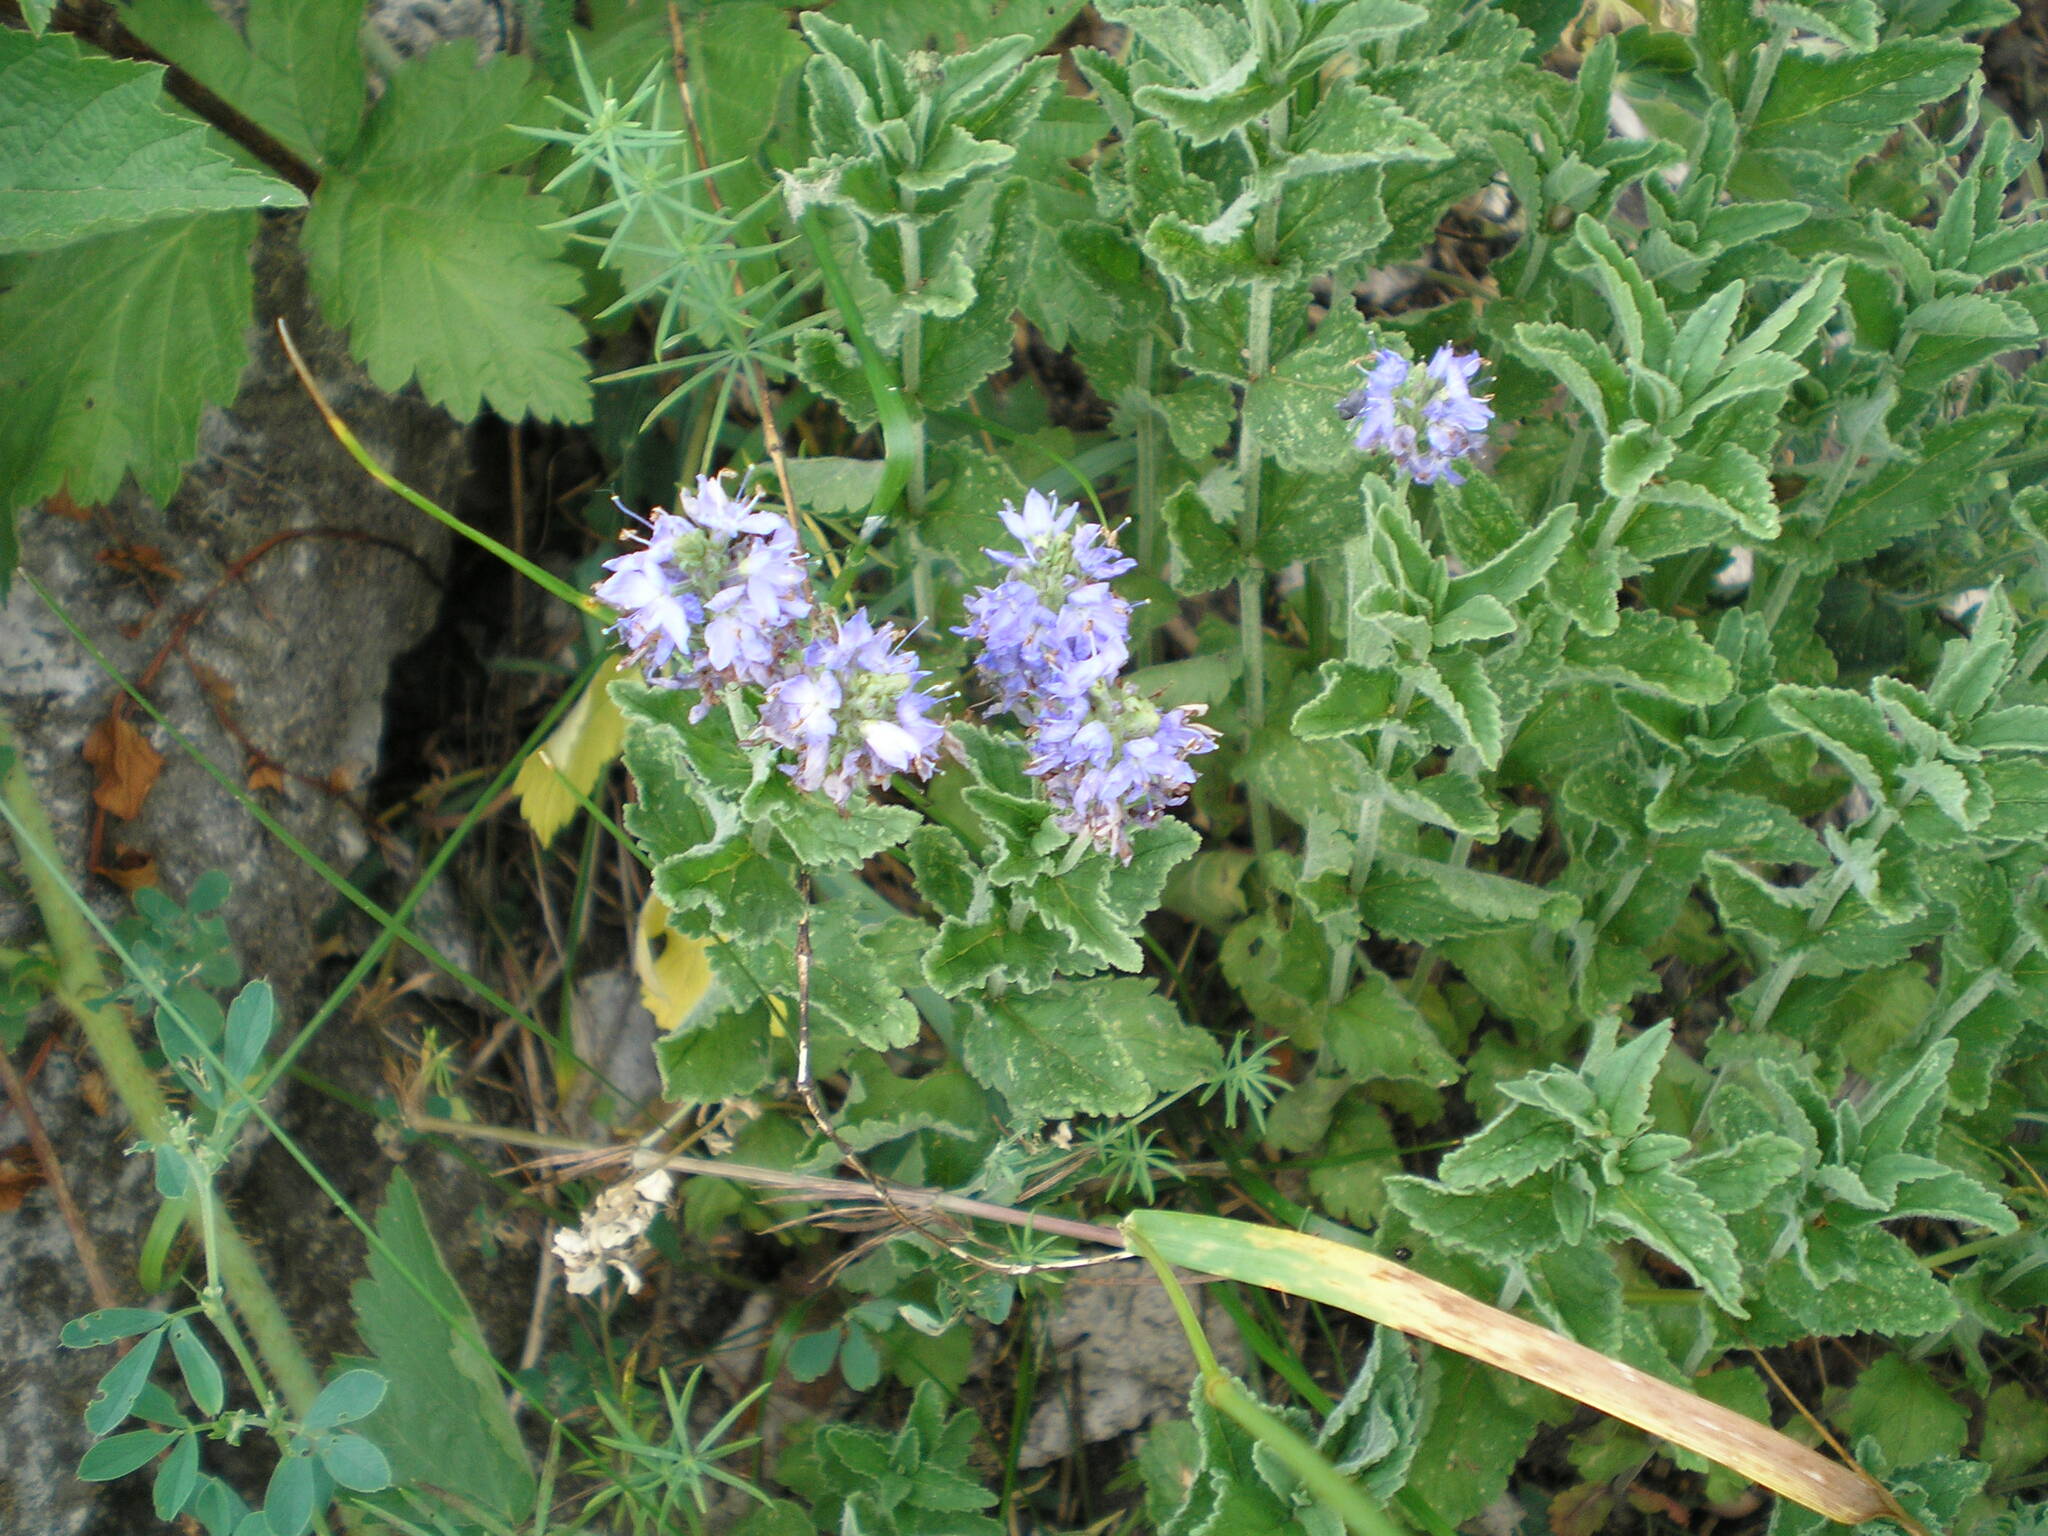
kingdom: Plantae
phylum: Tracheophyta
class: Magnoliopsida
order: Lamiales
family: Plantaginaceae
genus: Veronica
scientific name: Veronica teucrium
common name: Large speedwell
